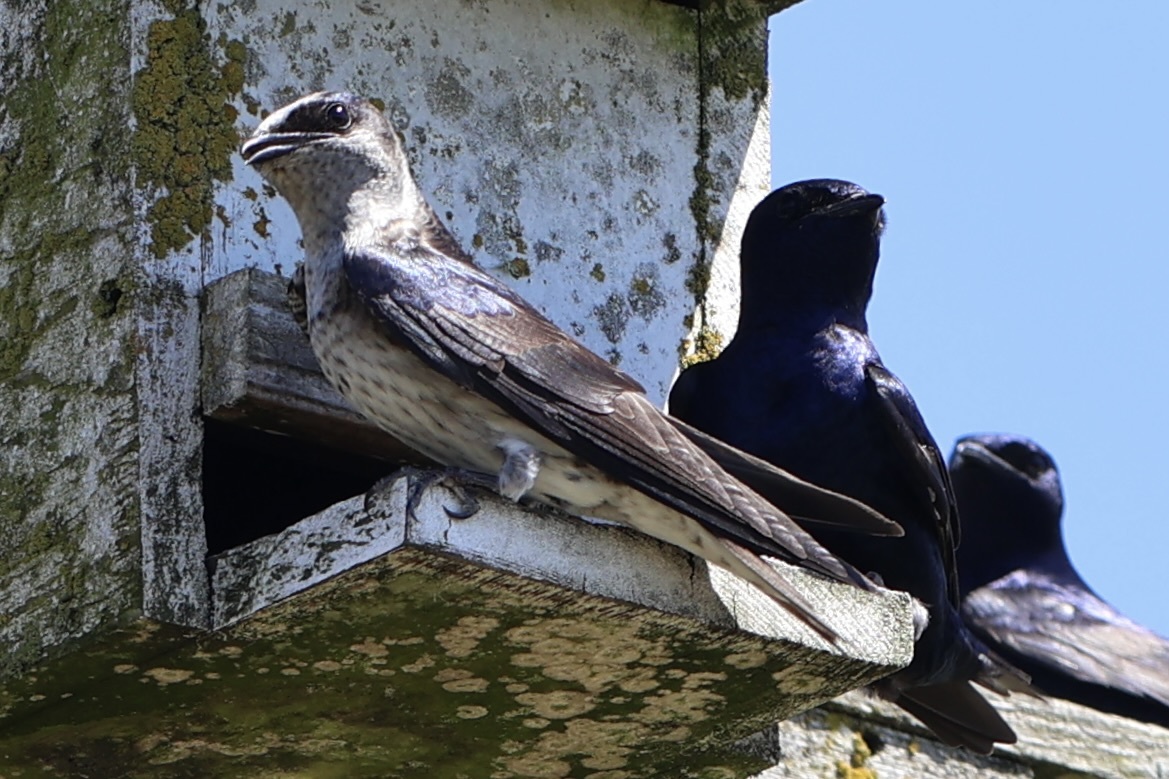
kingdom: Animalia
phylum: Chordata
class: Aves
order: Passeriformes
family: Hirundinidae
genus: Progne
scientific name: Progne subis
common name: Purple martin
